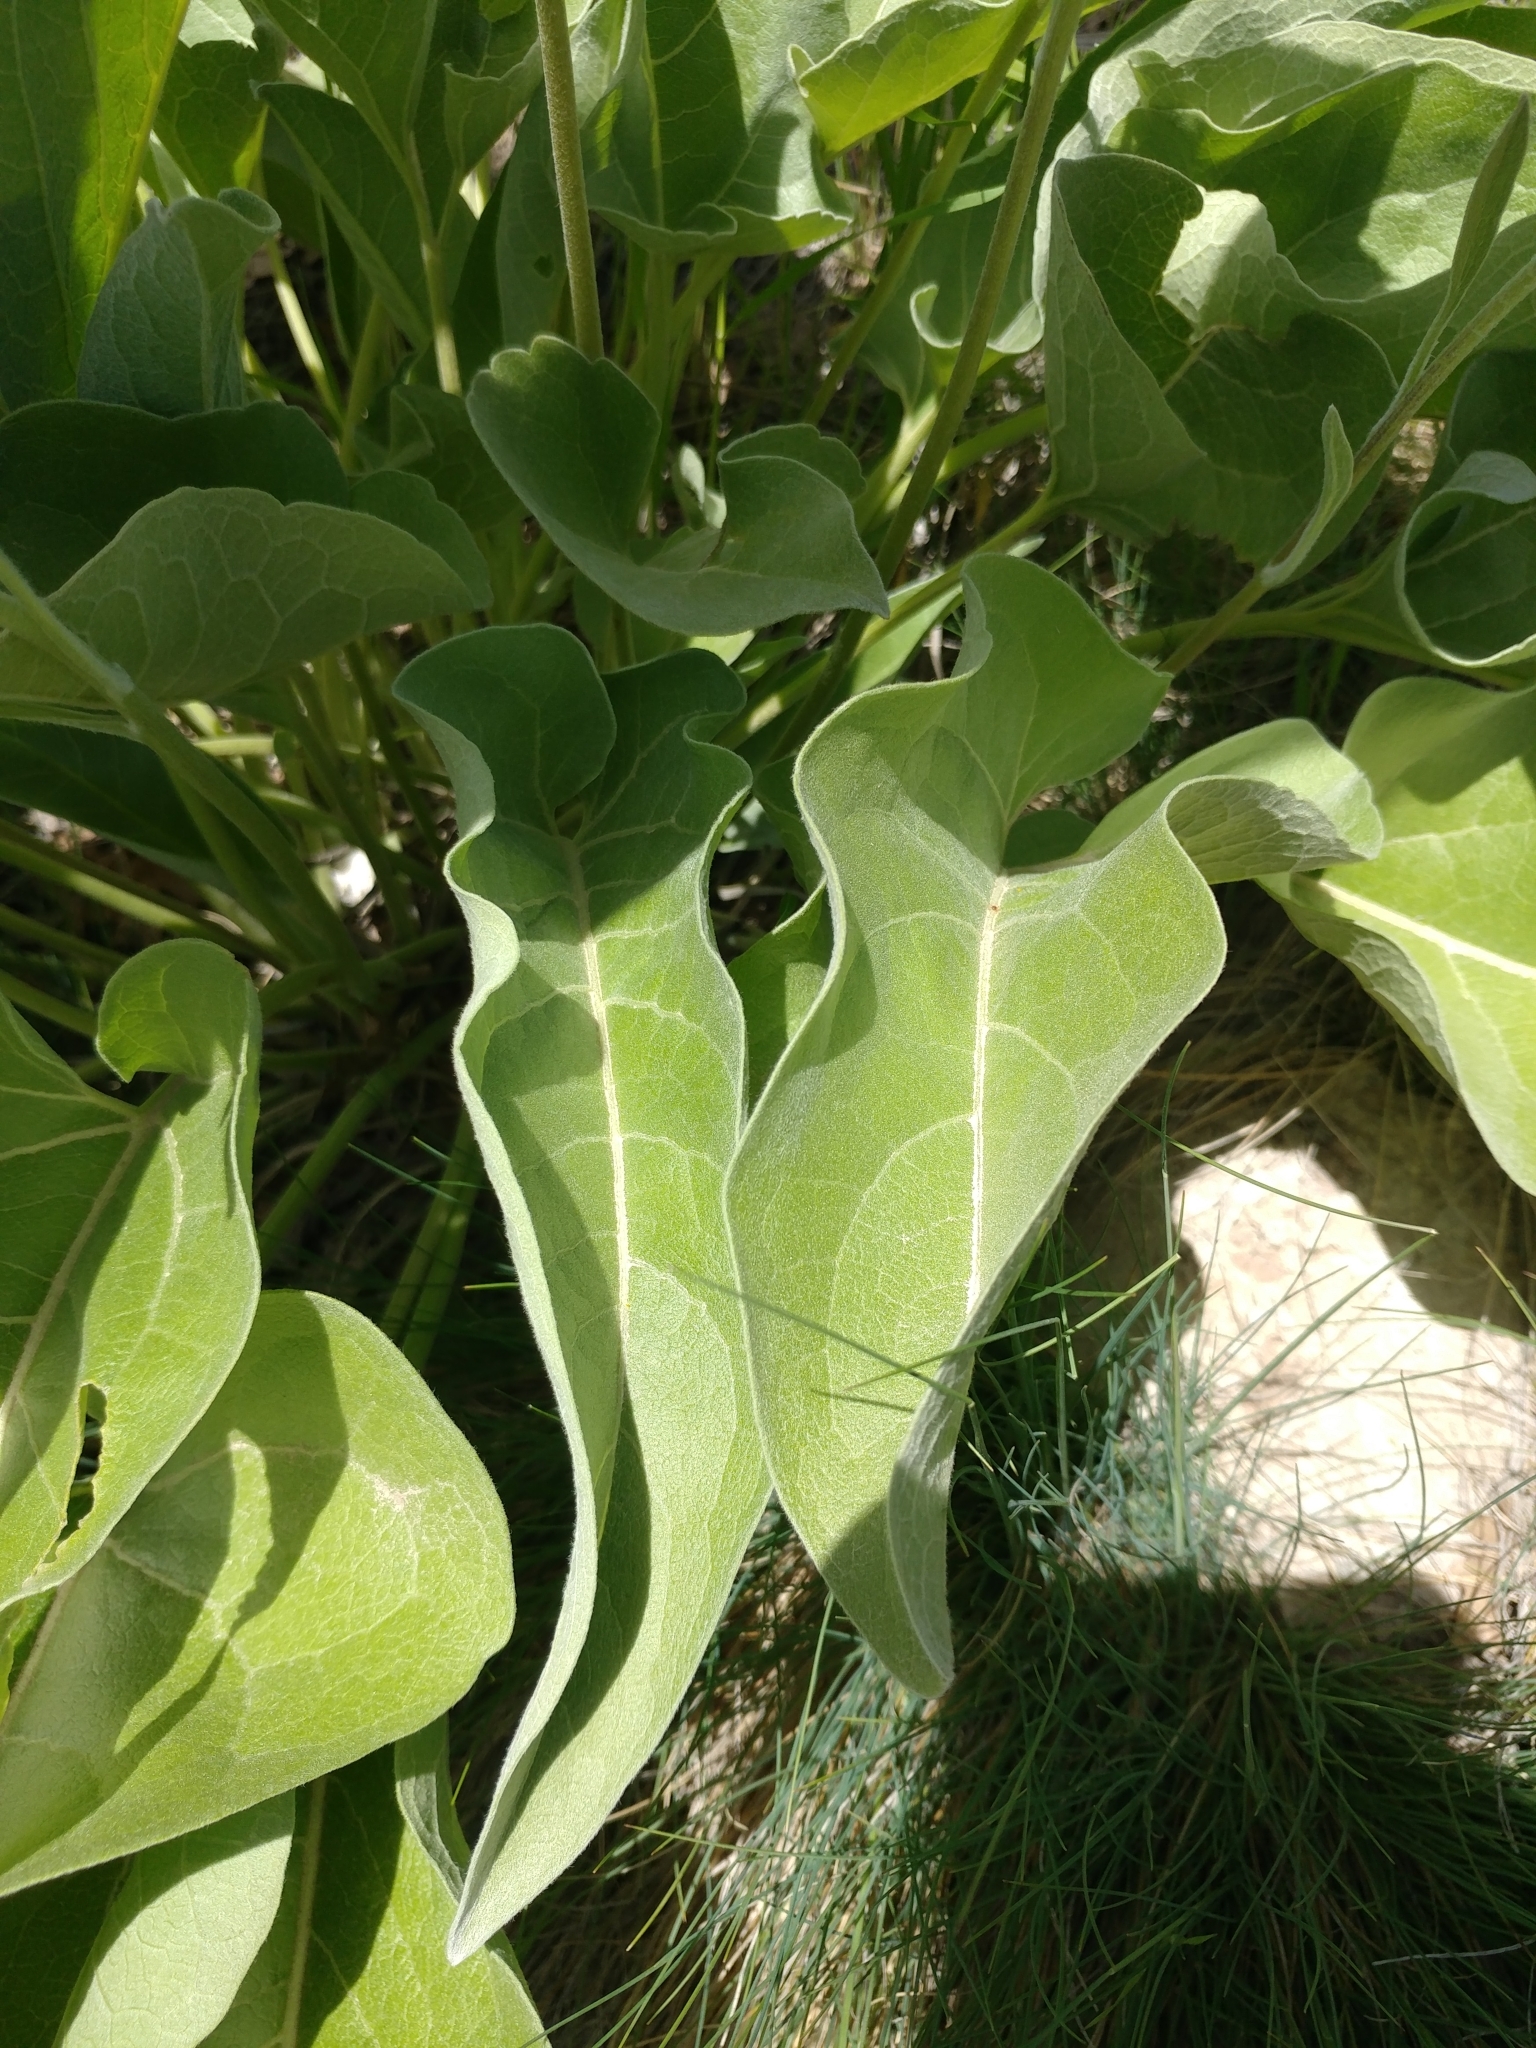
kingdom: Plantae
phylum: Tracheophyta
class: Magnoliopsida
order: Asterales
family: Asteraceae
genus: Wyethia
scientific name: Wyethia sagittata
